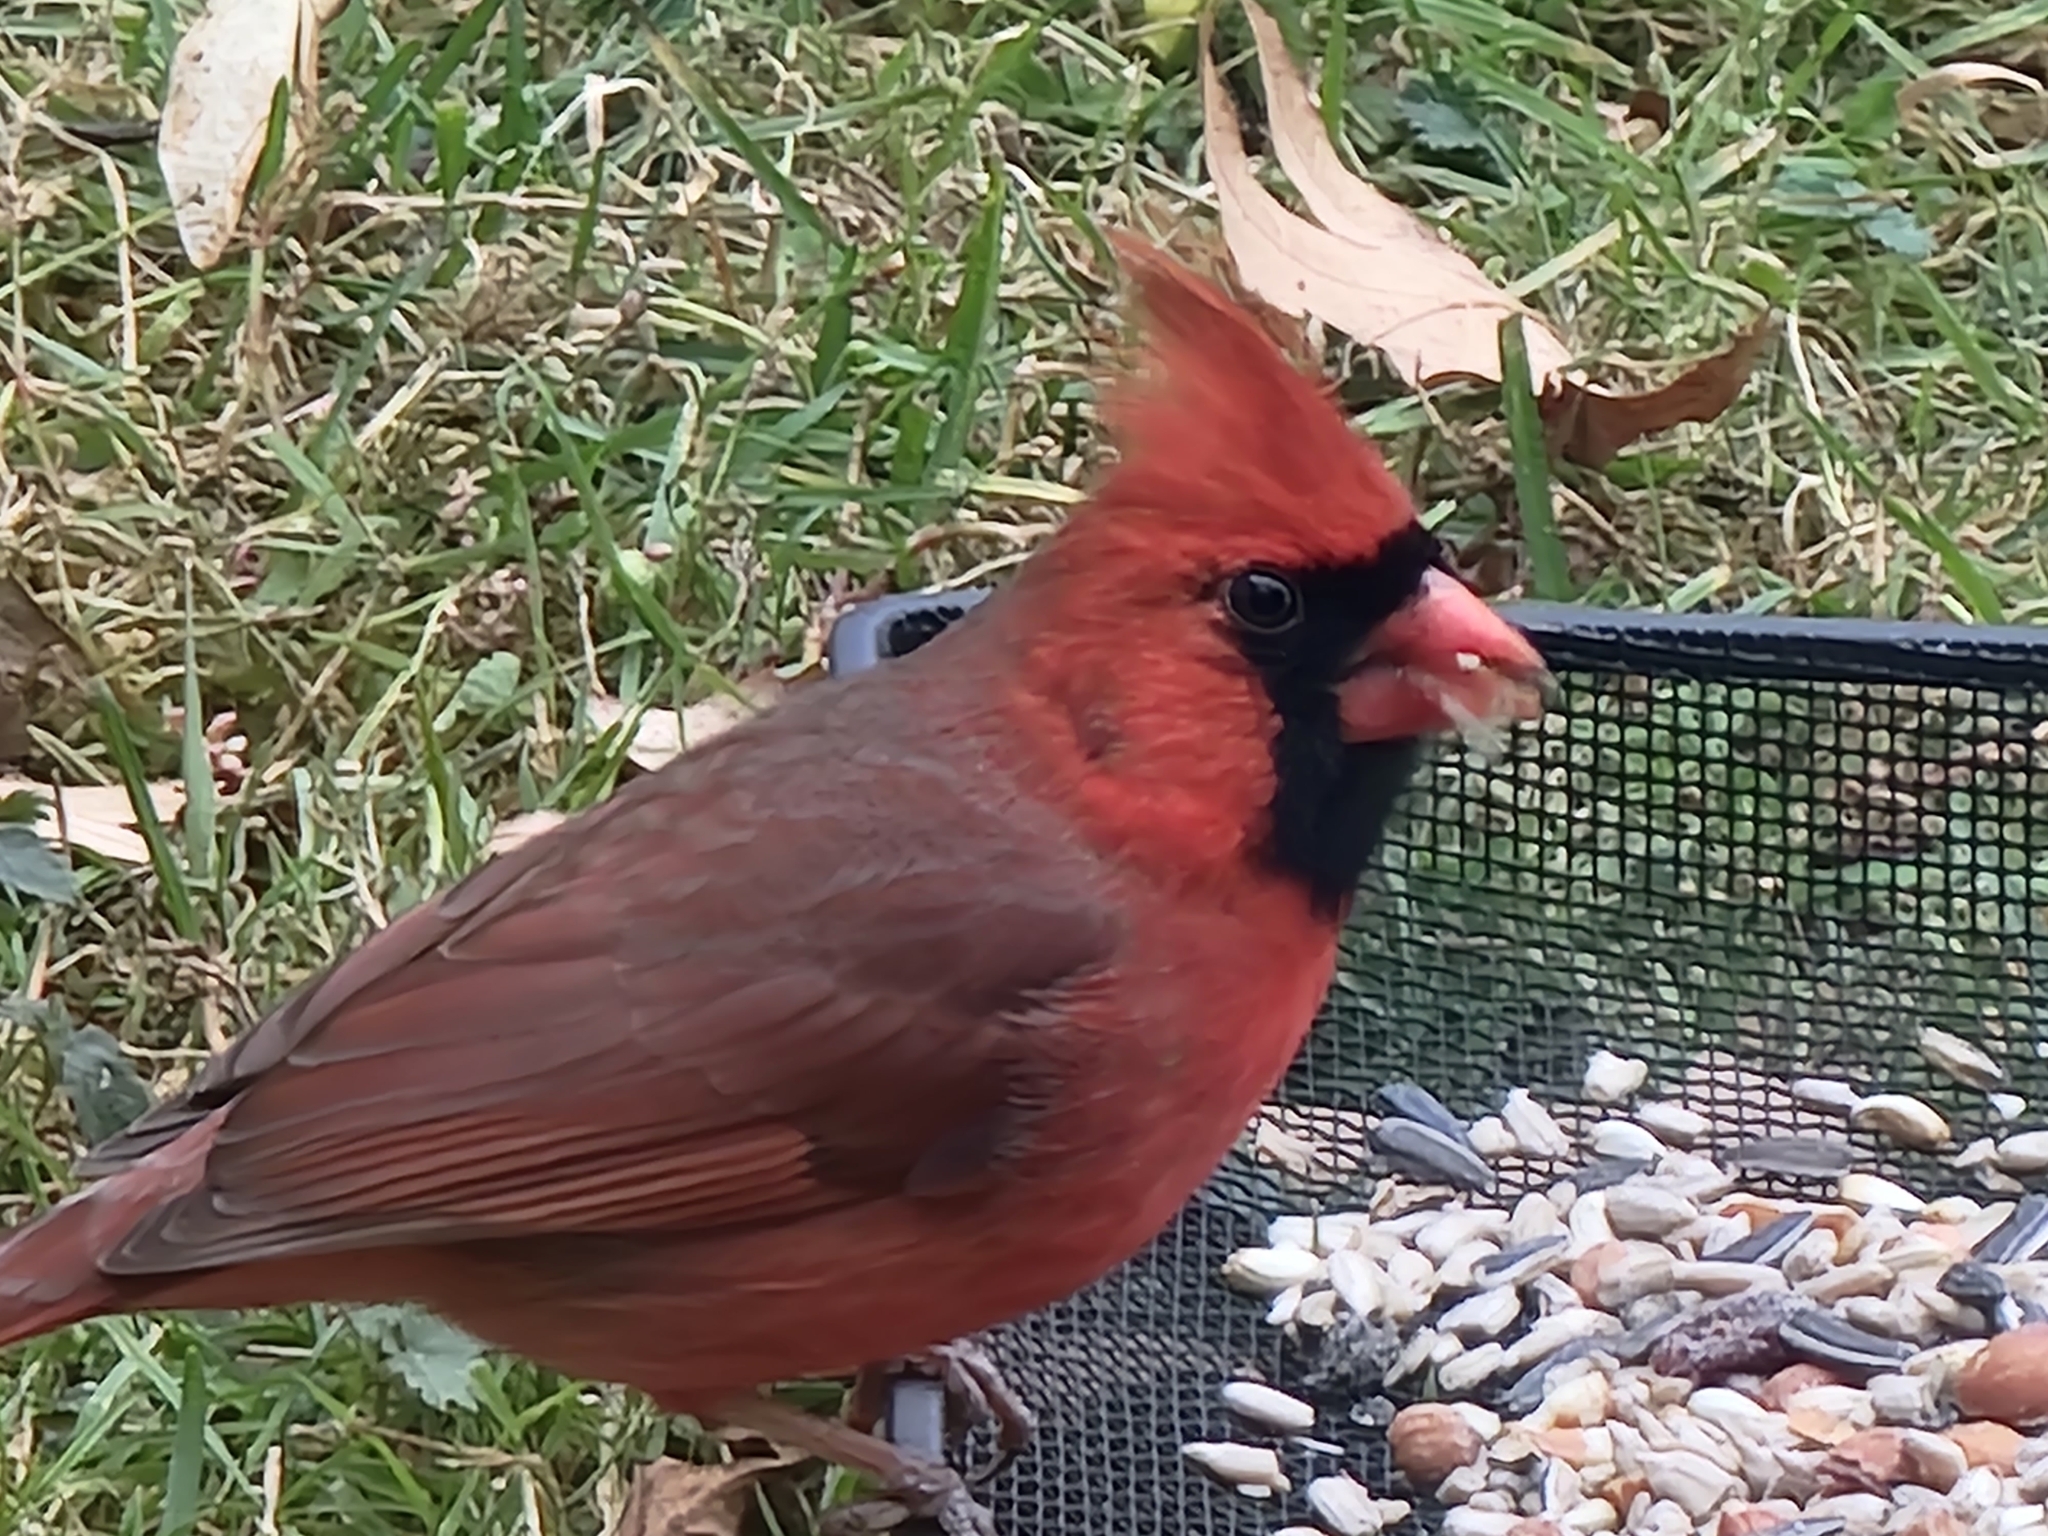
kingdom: Animalia
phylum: Chordata
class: Aves
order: Passeriformes
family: Cardinalidae
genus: Cardinalis
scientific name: Cardinalis cardinalis
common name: Northern cardinal
